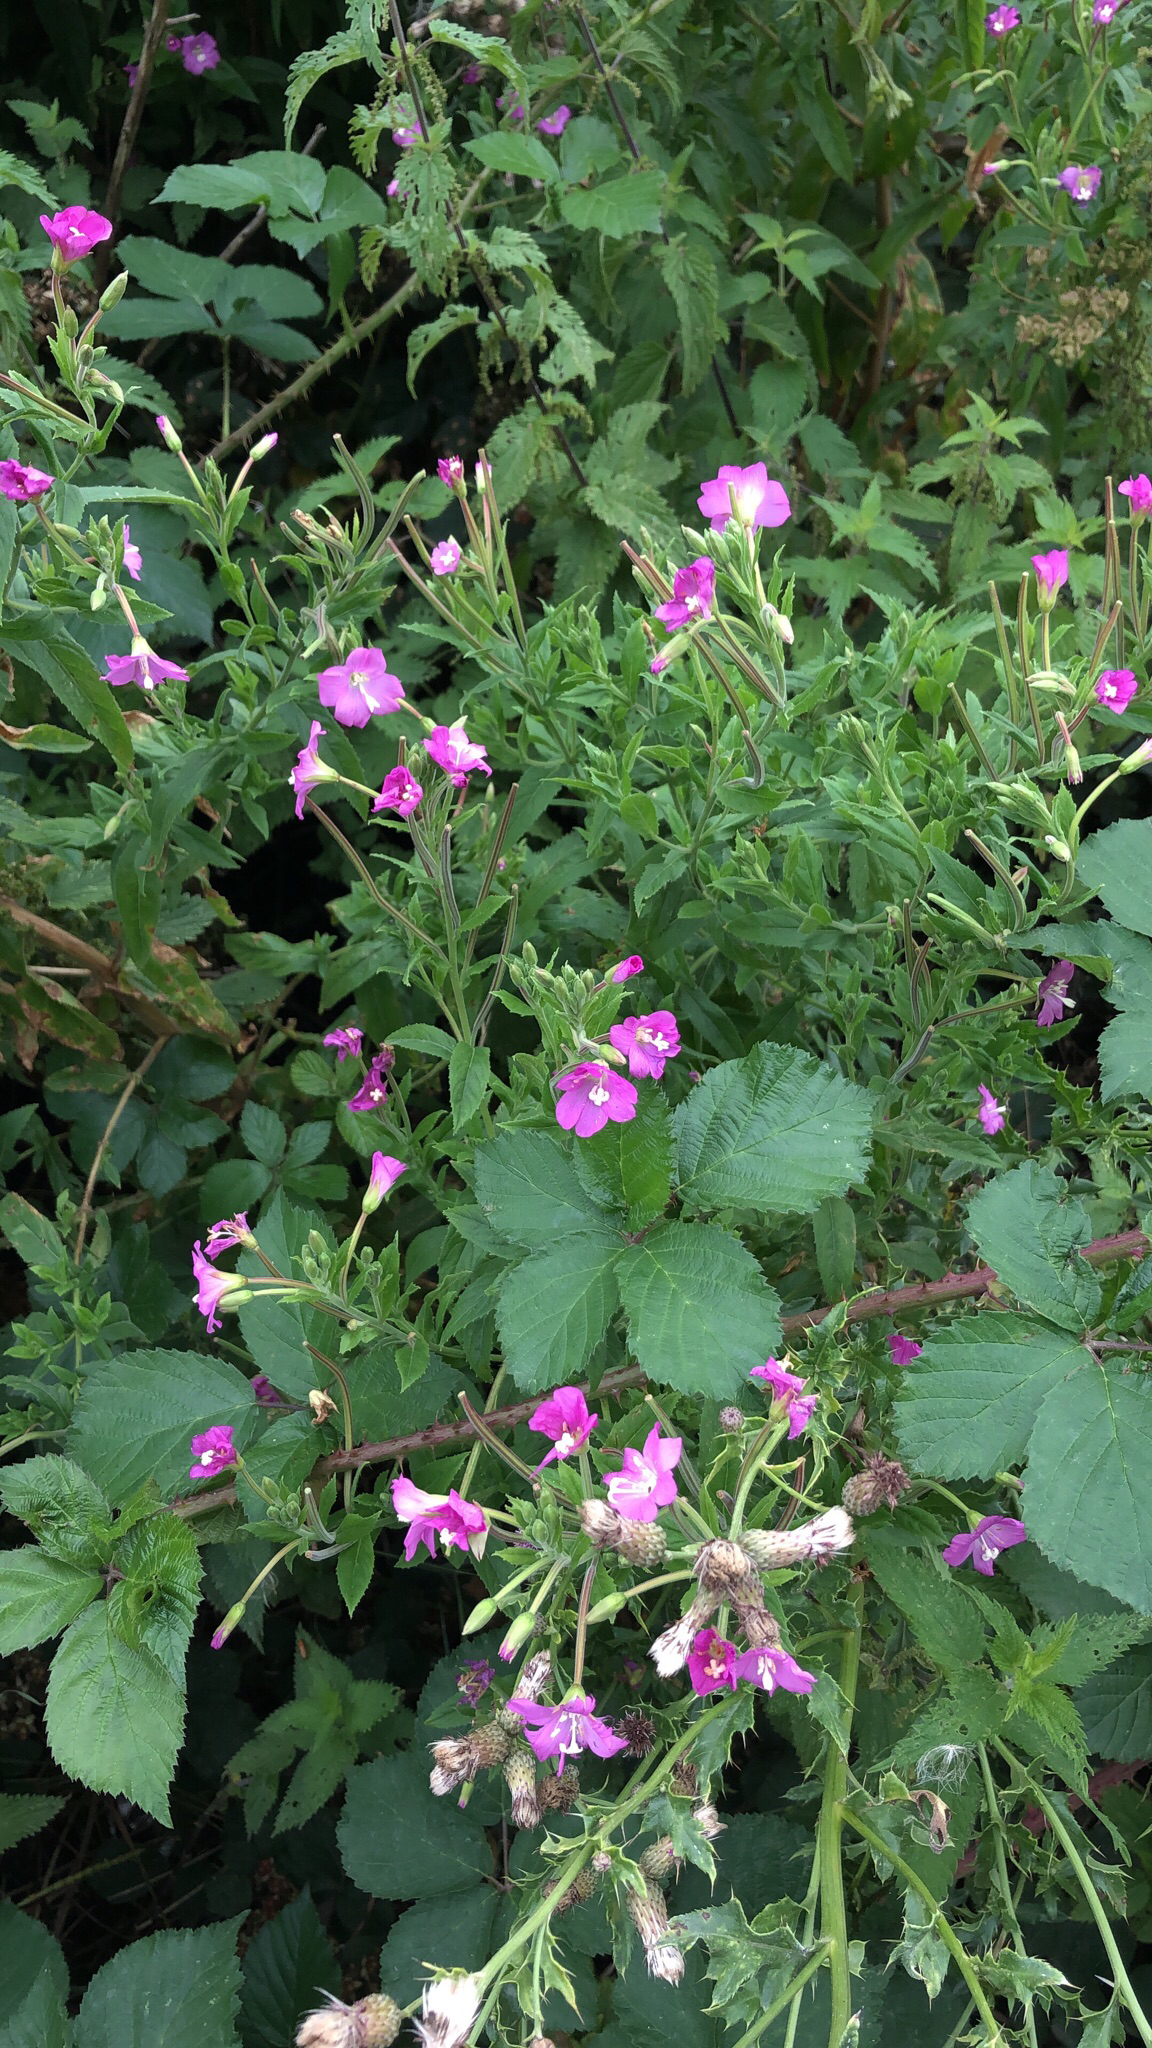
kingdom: Plantae
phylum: Tracheophyta
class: Magnoliopsida
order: Myrtales
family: Onagraceae
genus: Epilobium
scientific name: Epilobium hirsutum
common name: Great willowherb
